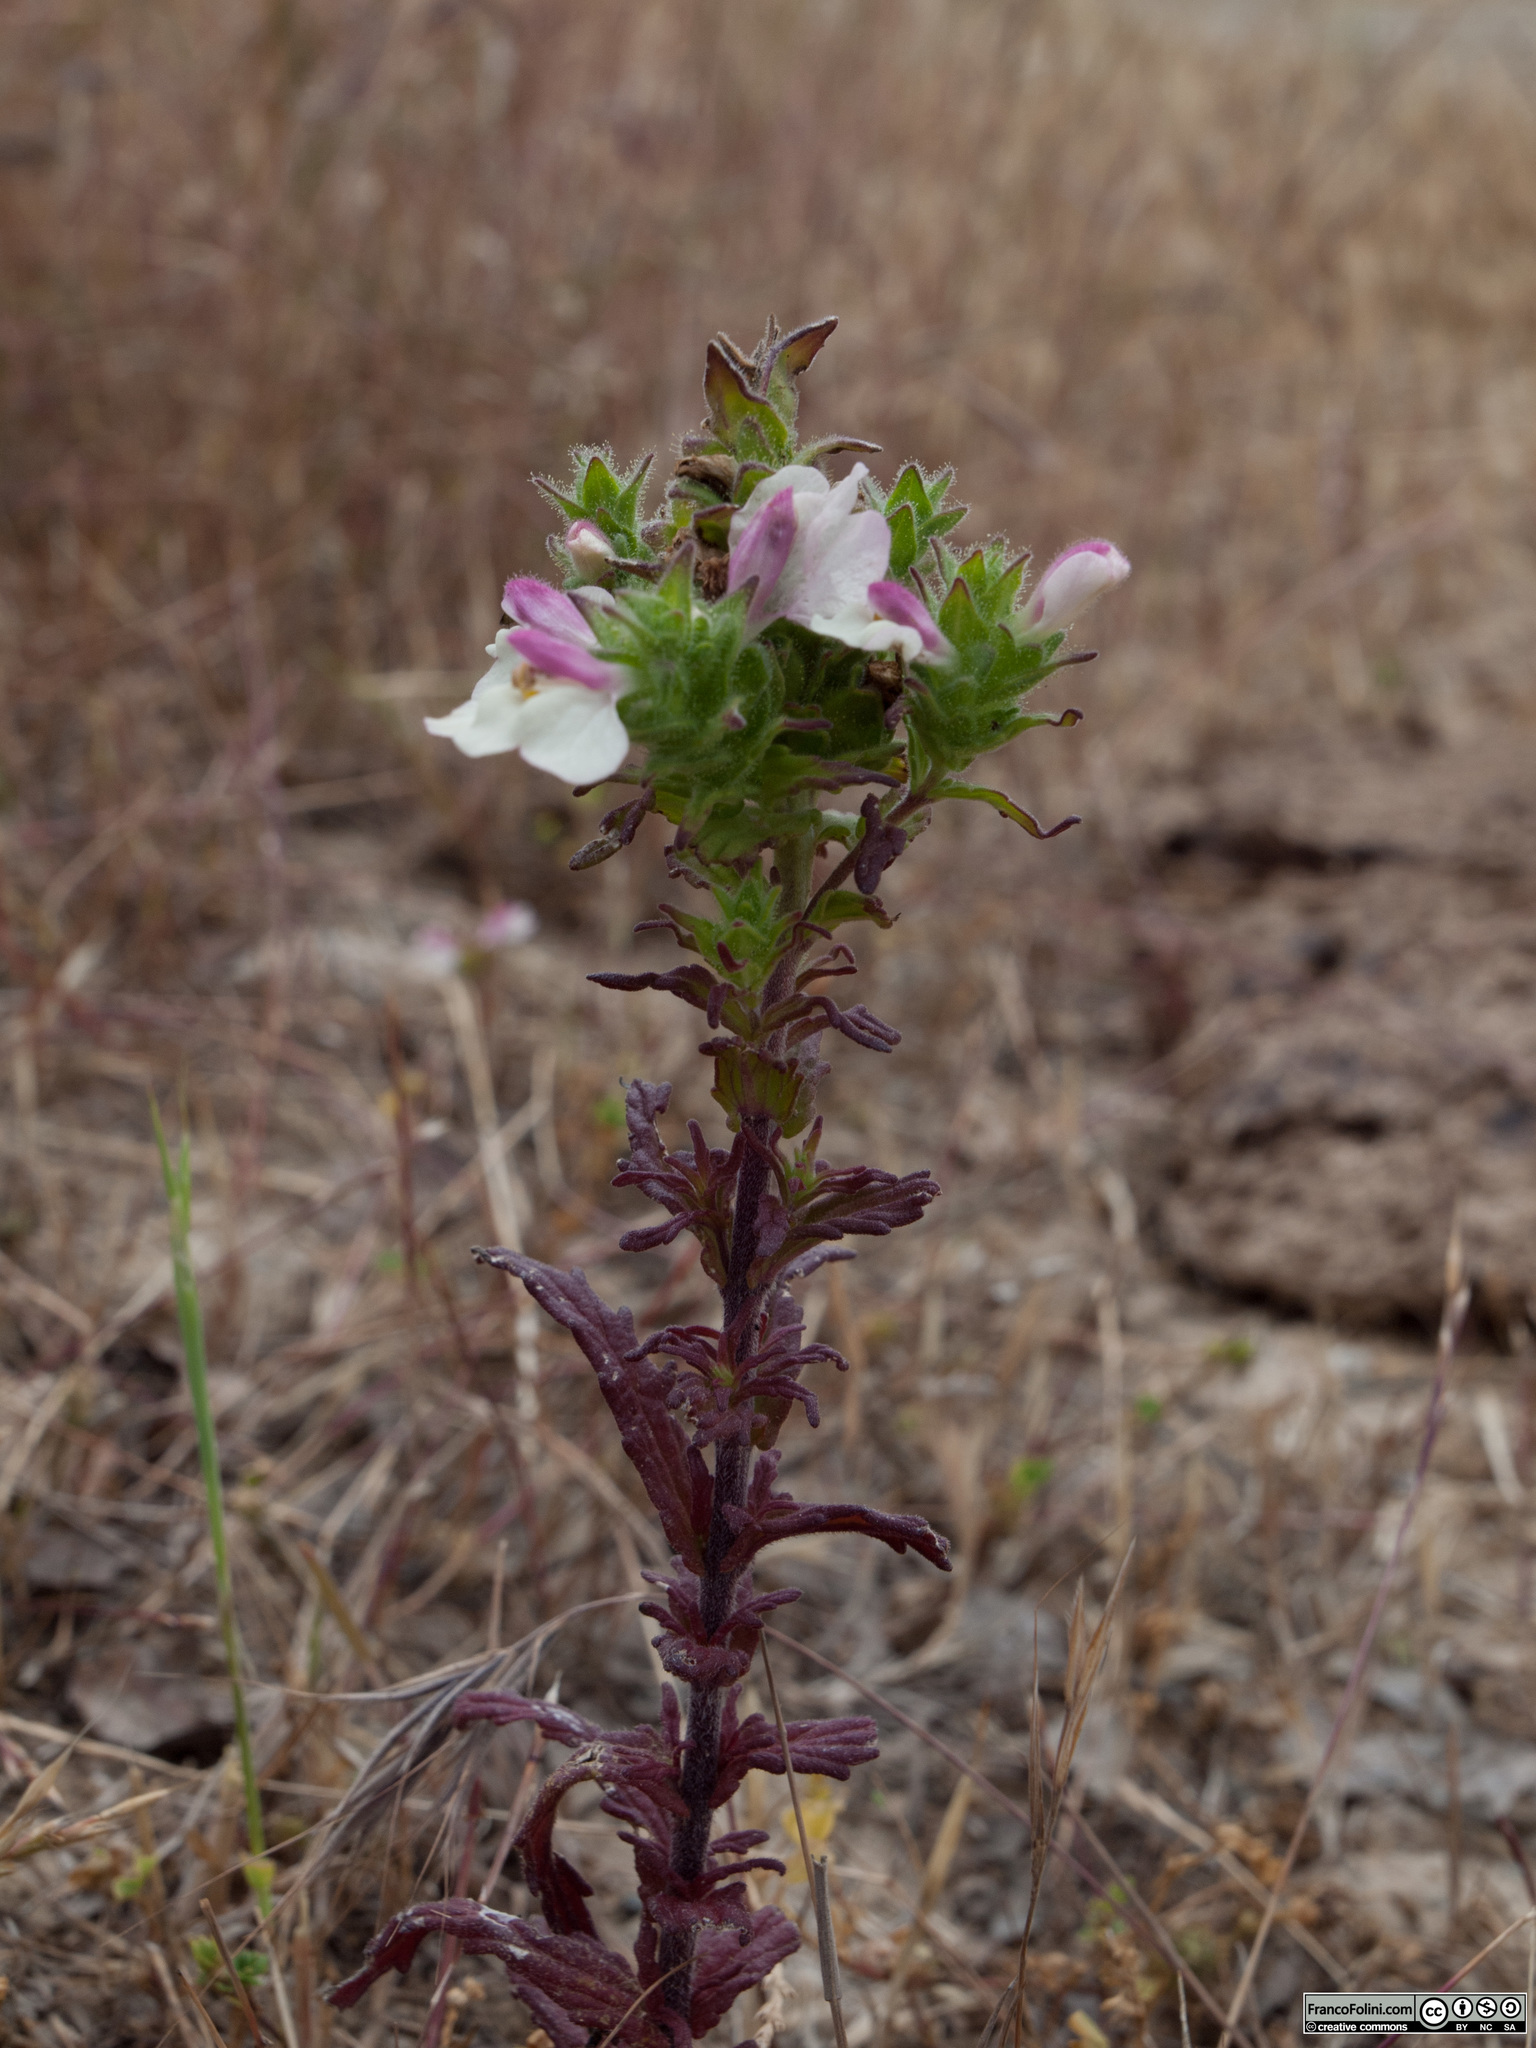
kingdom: Plantae
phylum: Tracheophyta
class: Magnoliopsida
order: Lamiales
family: Orobanchaceae
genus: Bellardia
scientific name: Bellardia trixago
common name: Mediterranean lineseed
